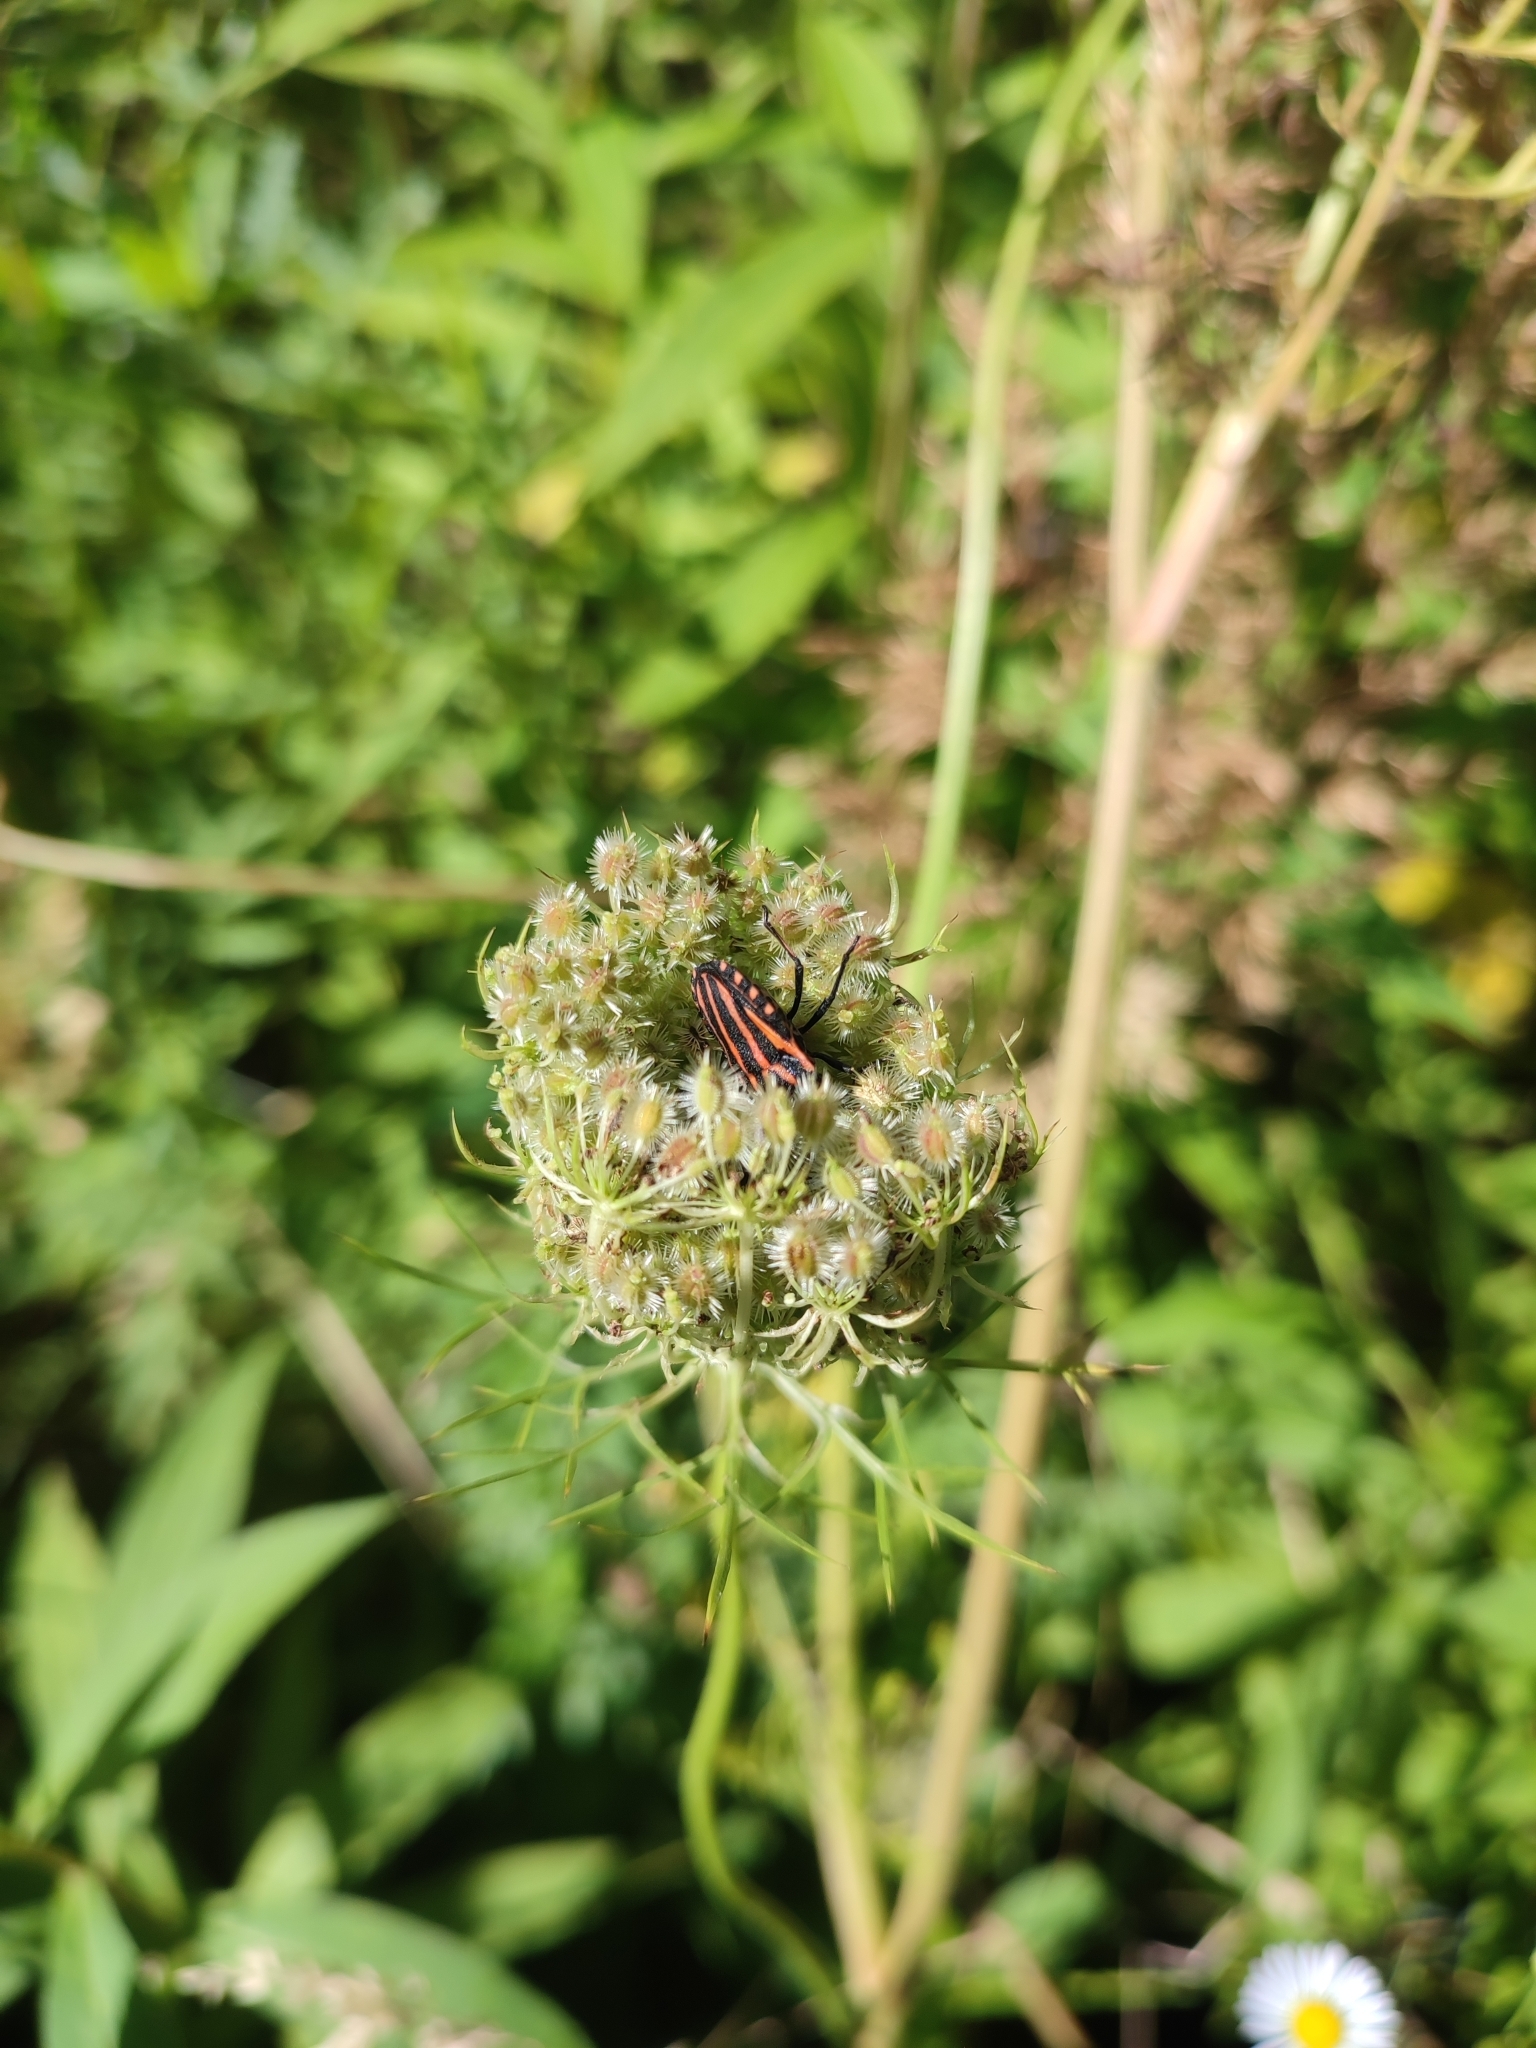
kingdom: Animalia
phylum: Arthropoda
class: Insecta
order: Hemiptera
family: Pentatomidae
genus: Graphosoma
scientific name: Graphosoma italicum
